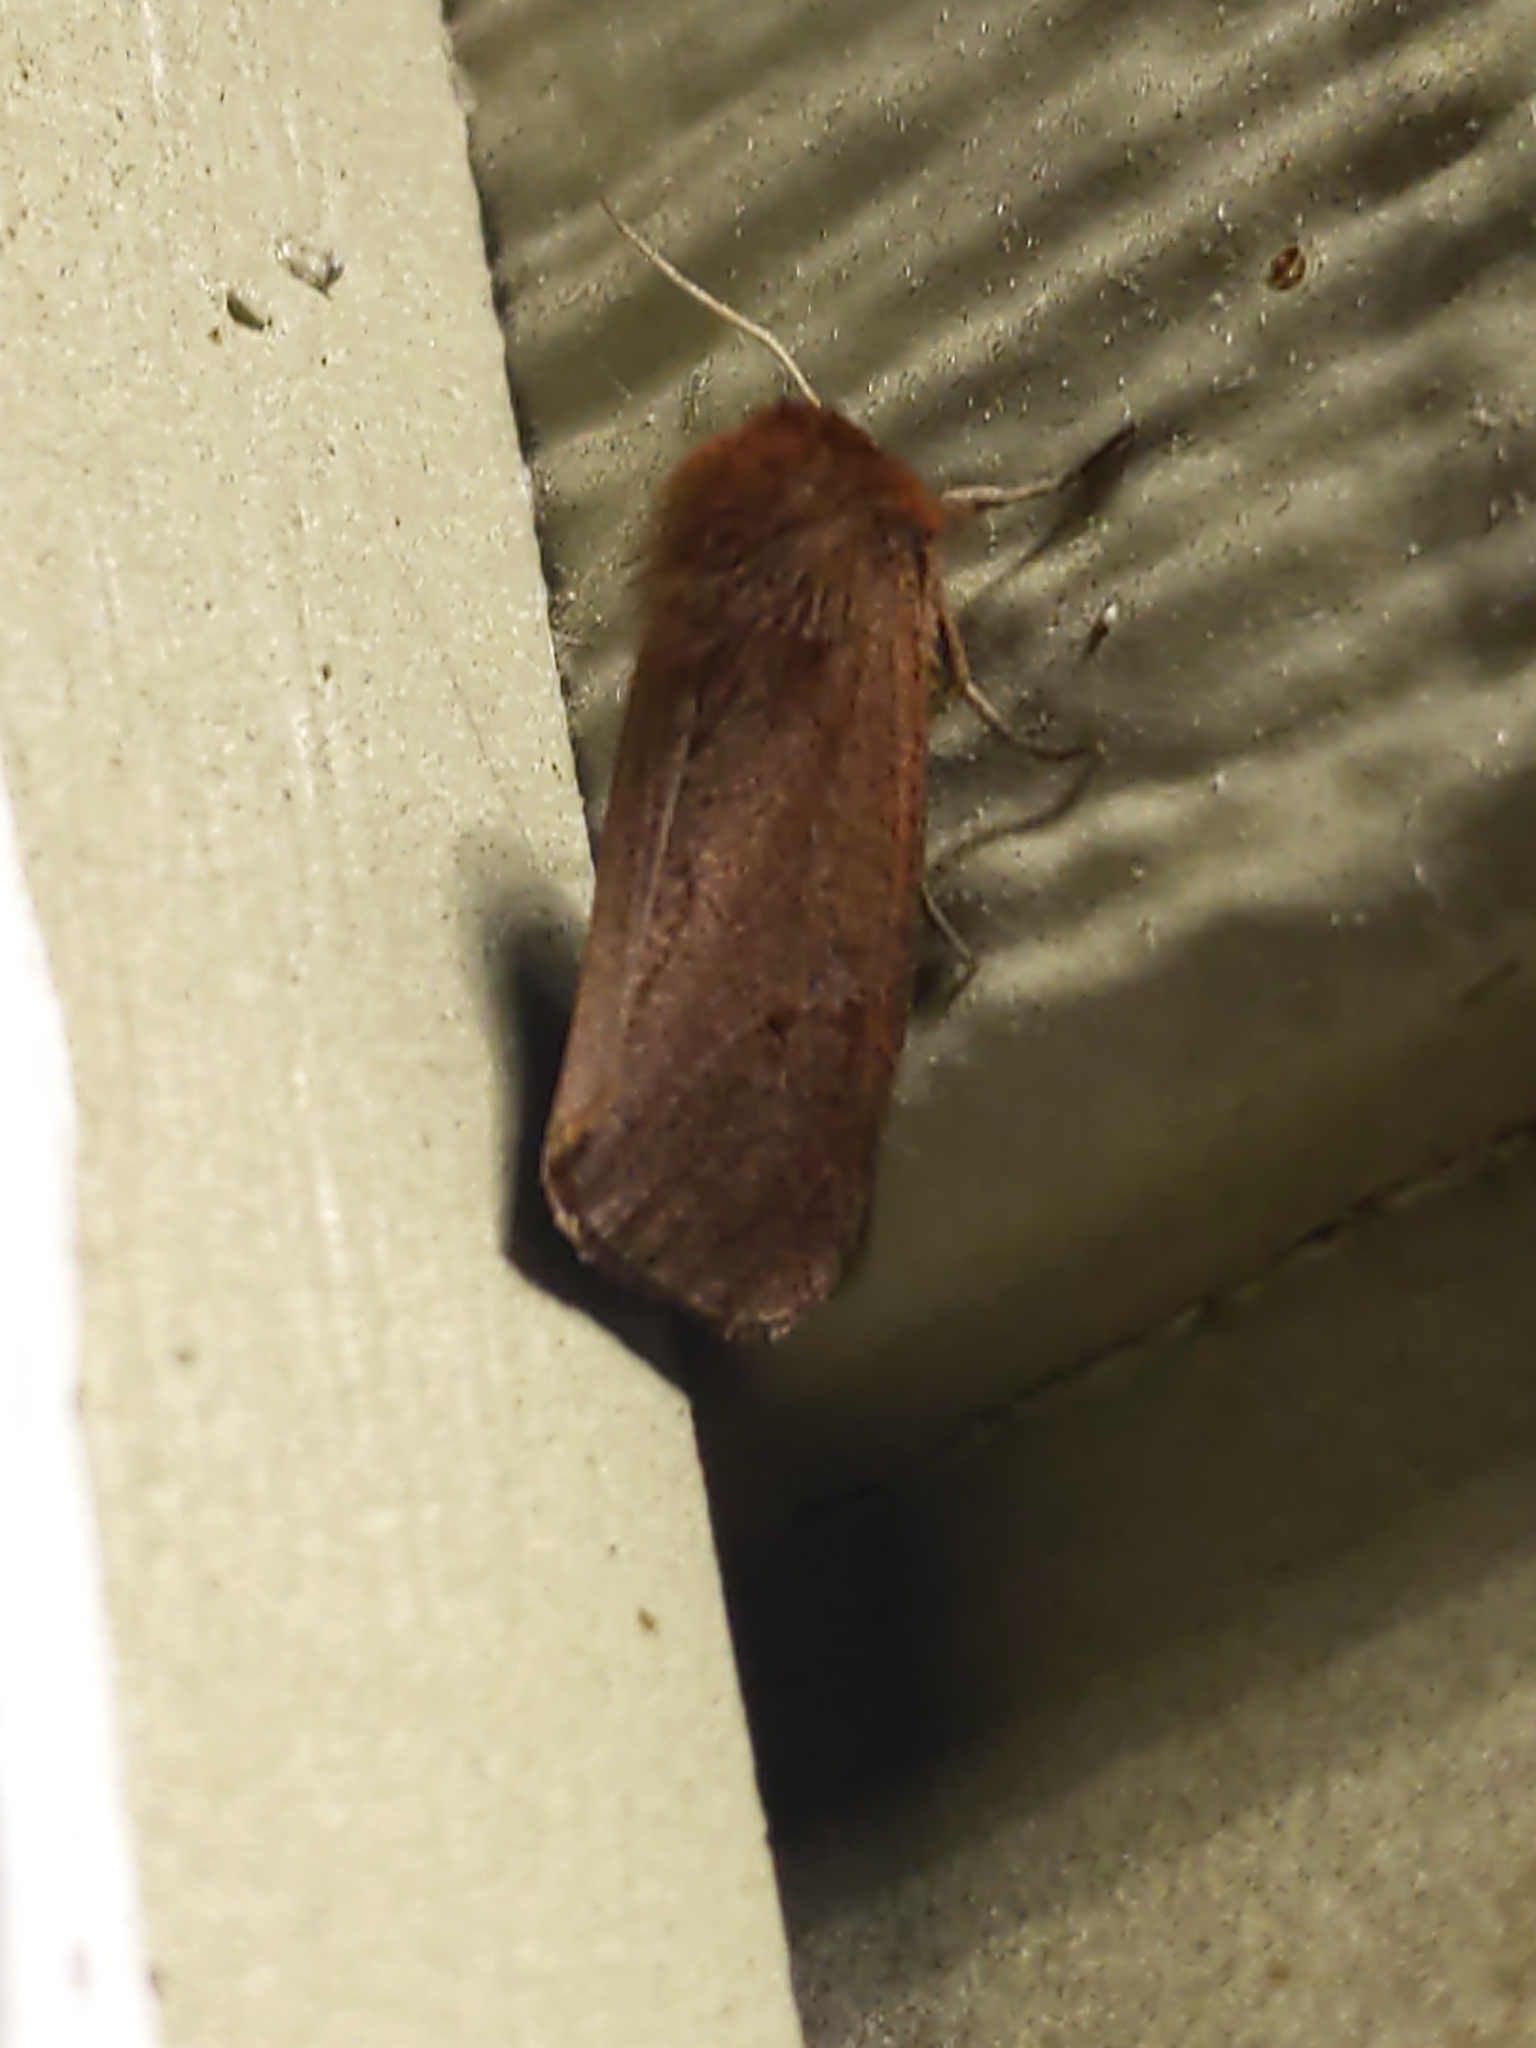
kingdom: Animalia
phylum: Arthropoda
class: Insecta
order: Lepidoptera
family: Erebidae
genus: Phragmatobia
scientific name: Phragmatobia fuliginosa
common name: Ruby tiger
